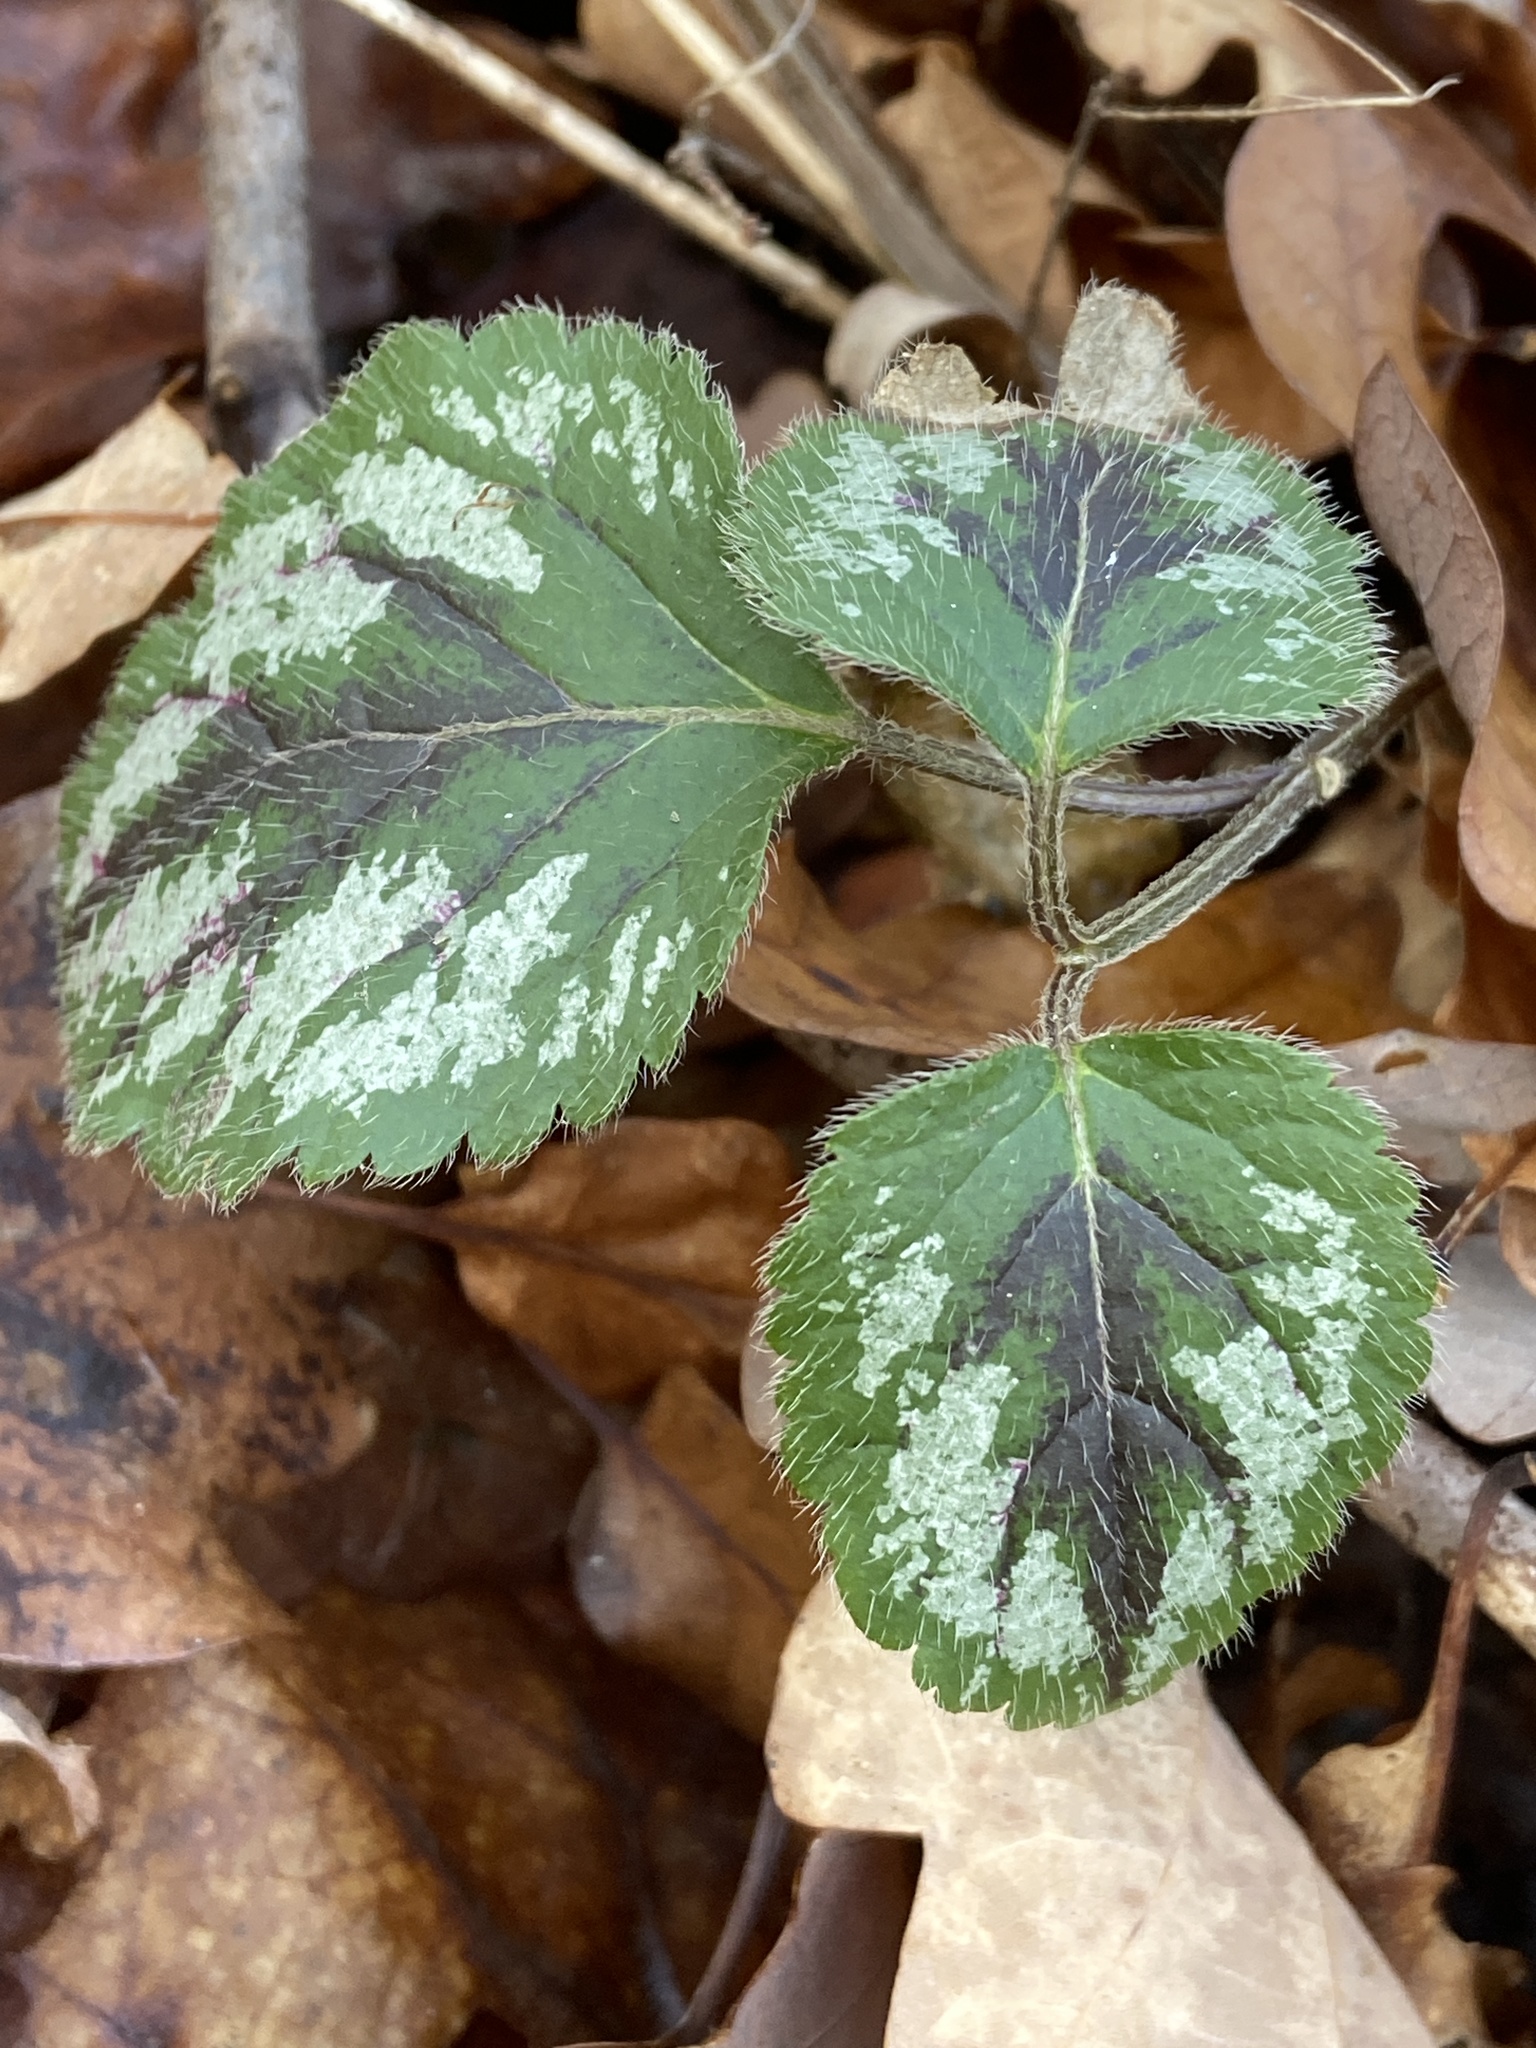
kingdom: Plantae
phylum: Tracheophyta
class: Magnoliopsida
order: Lamiales
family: Lamiaceae
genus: Lamium
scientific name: Lamium galeobdolon
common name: Yellow archangel
